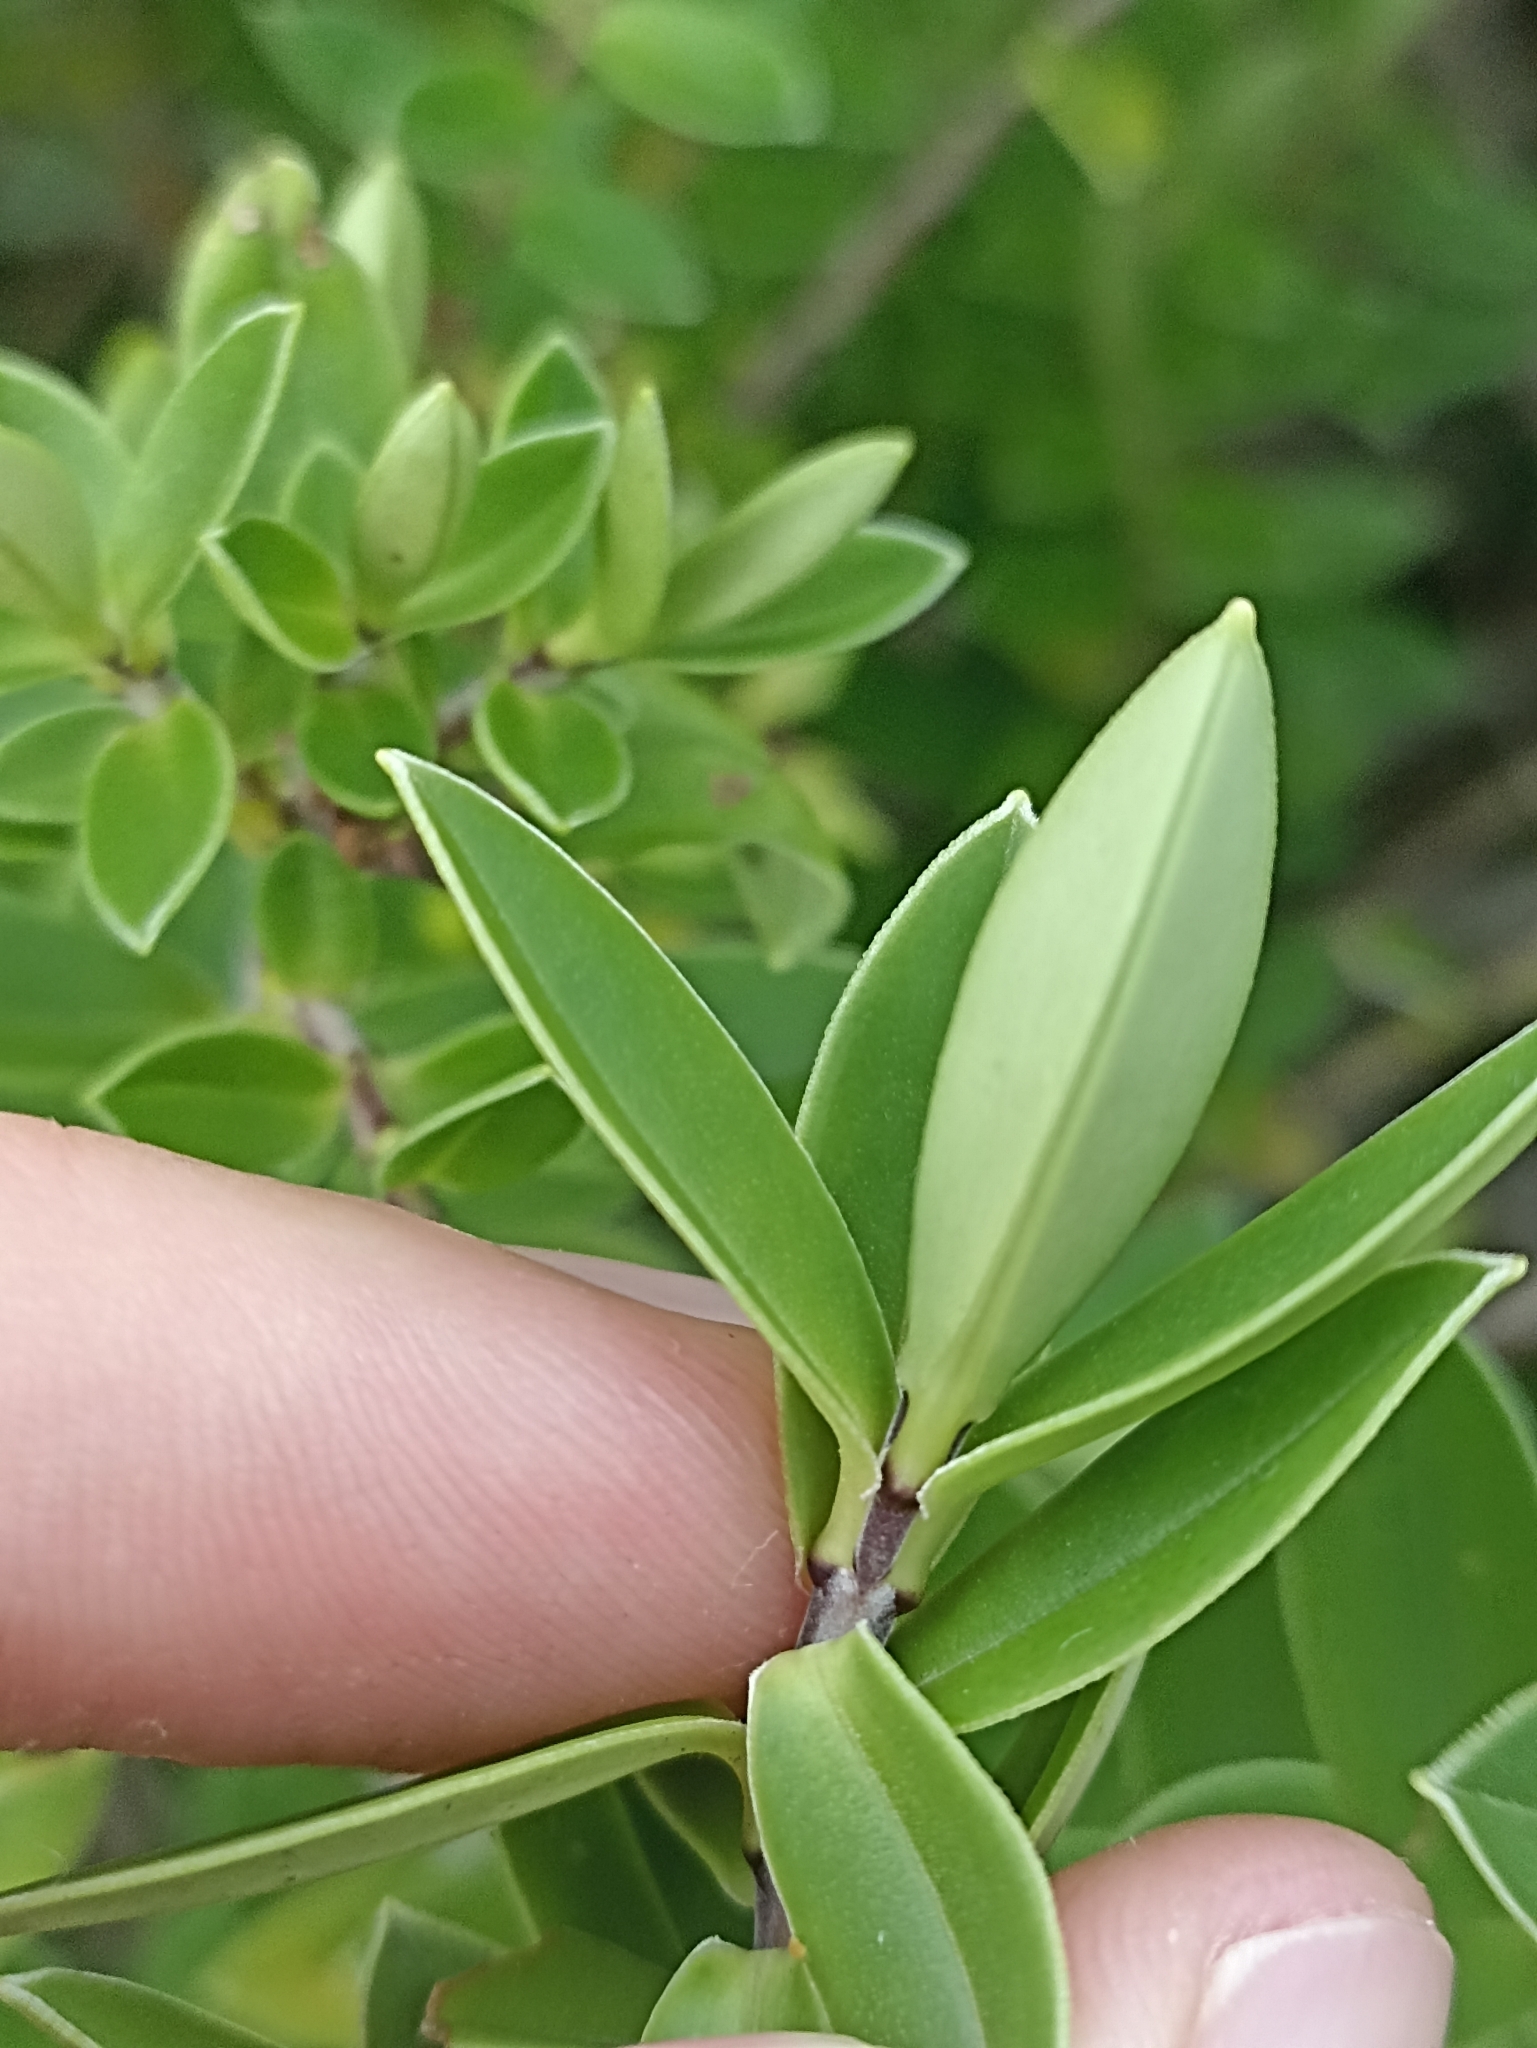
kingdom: Plantae
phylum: Tracheophyta
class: Magnoliopsida
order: Lamiales
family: Plantaginaceae
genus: Veronica
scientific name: Veronica elliptica
